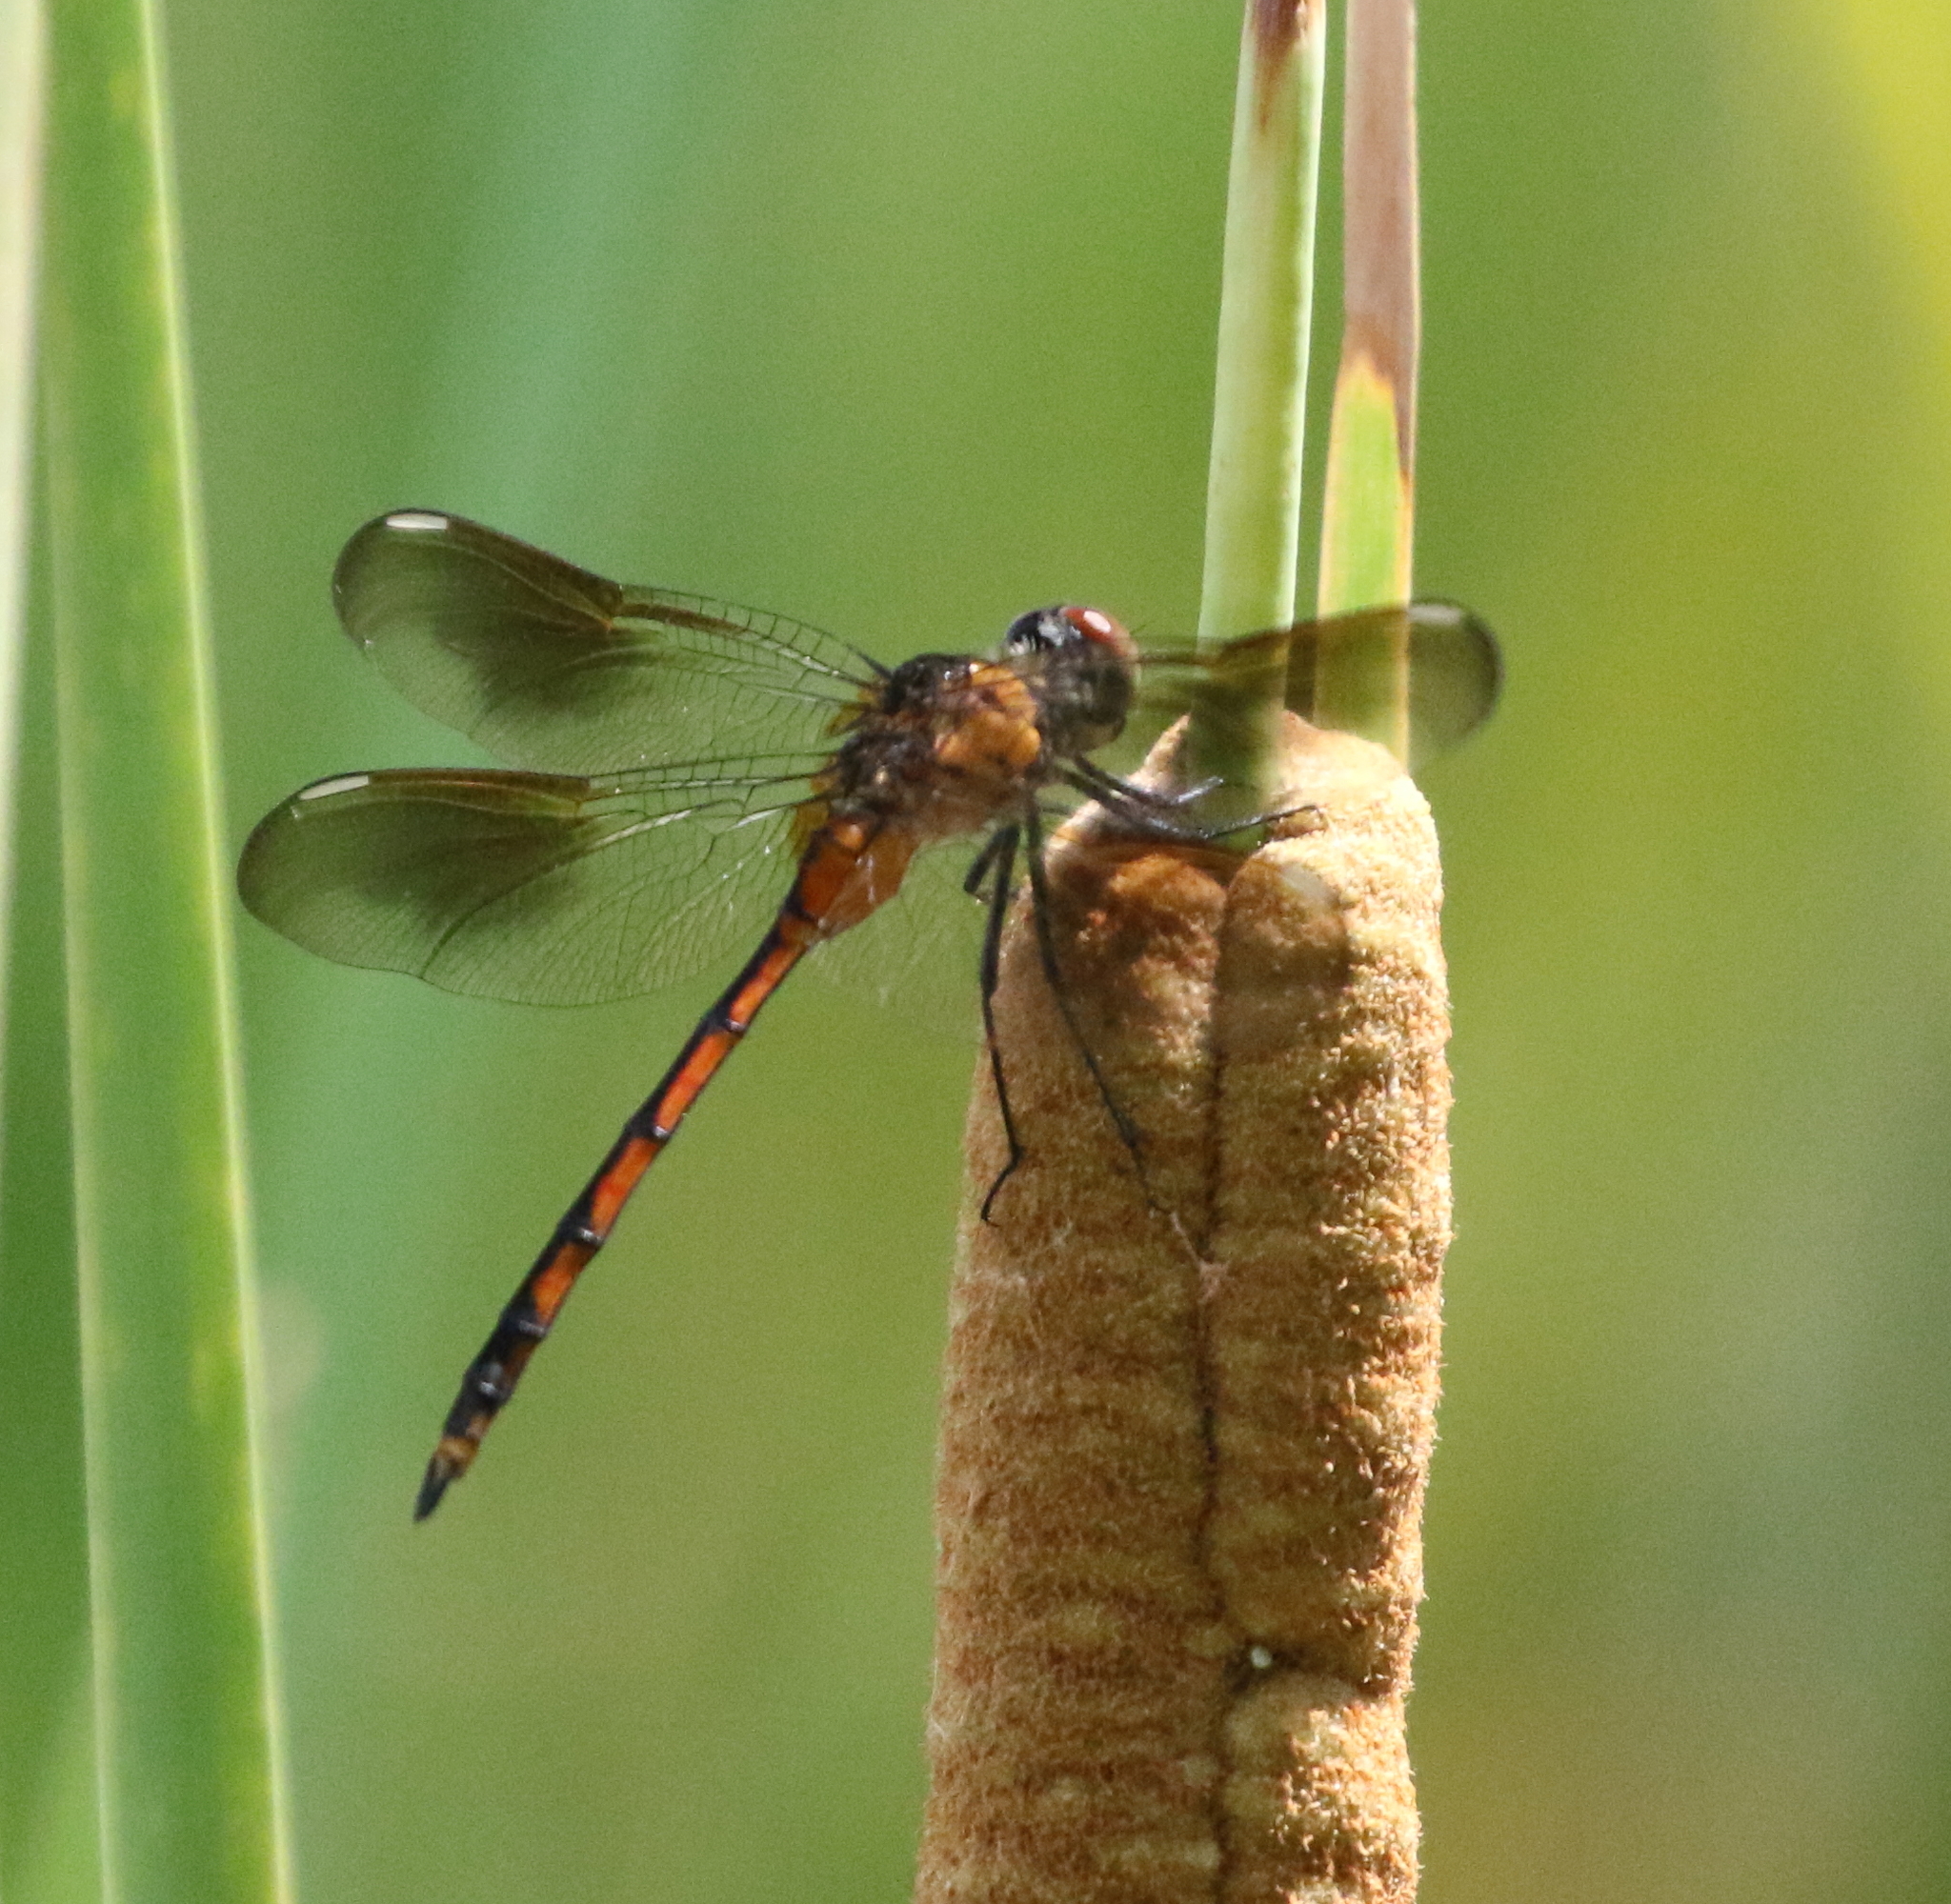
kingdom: Animalia
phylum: Arthropoda
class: Insecta
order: Odonata
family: Libellulidae
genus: Brachymesia
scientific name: Brachymesia gravida
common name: Four-spotted pennant
